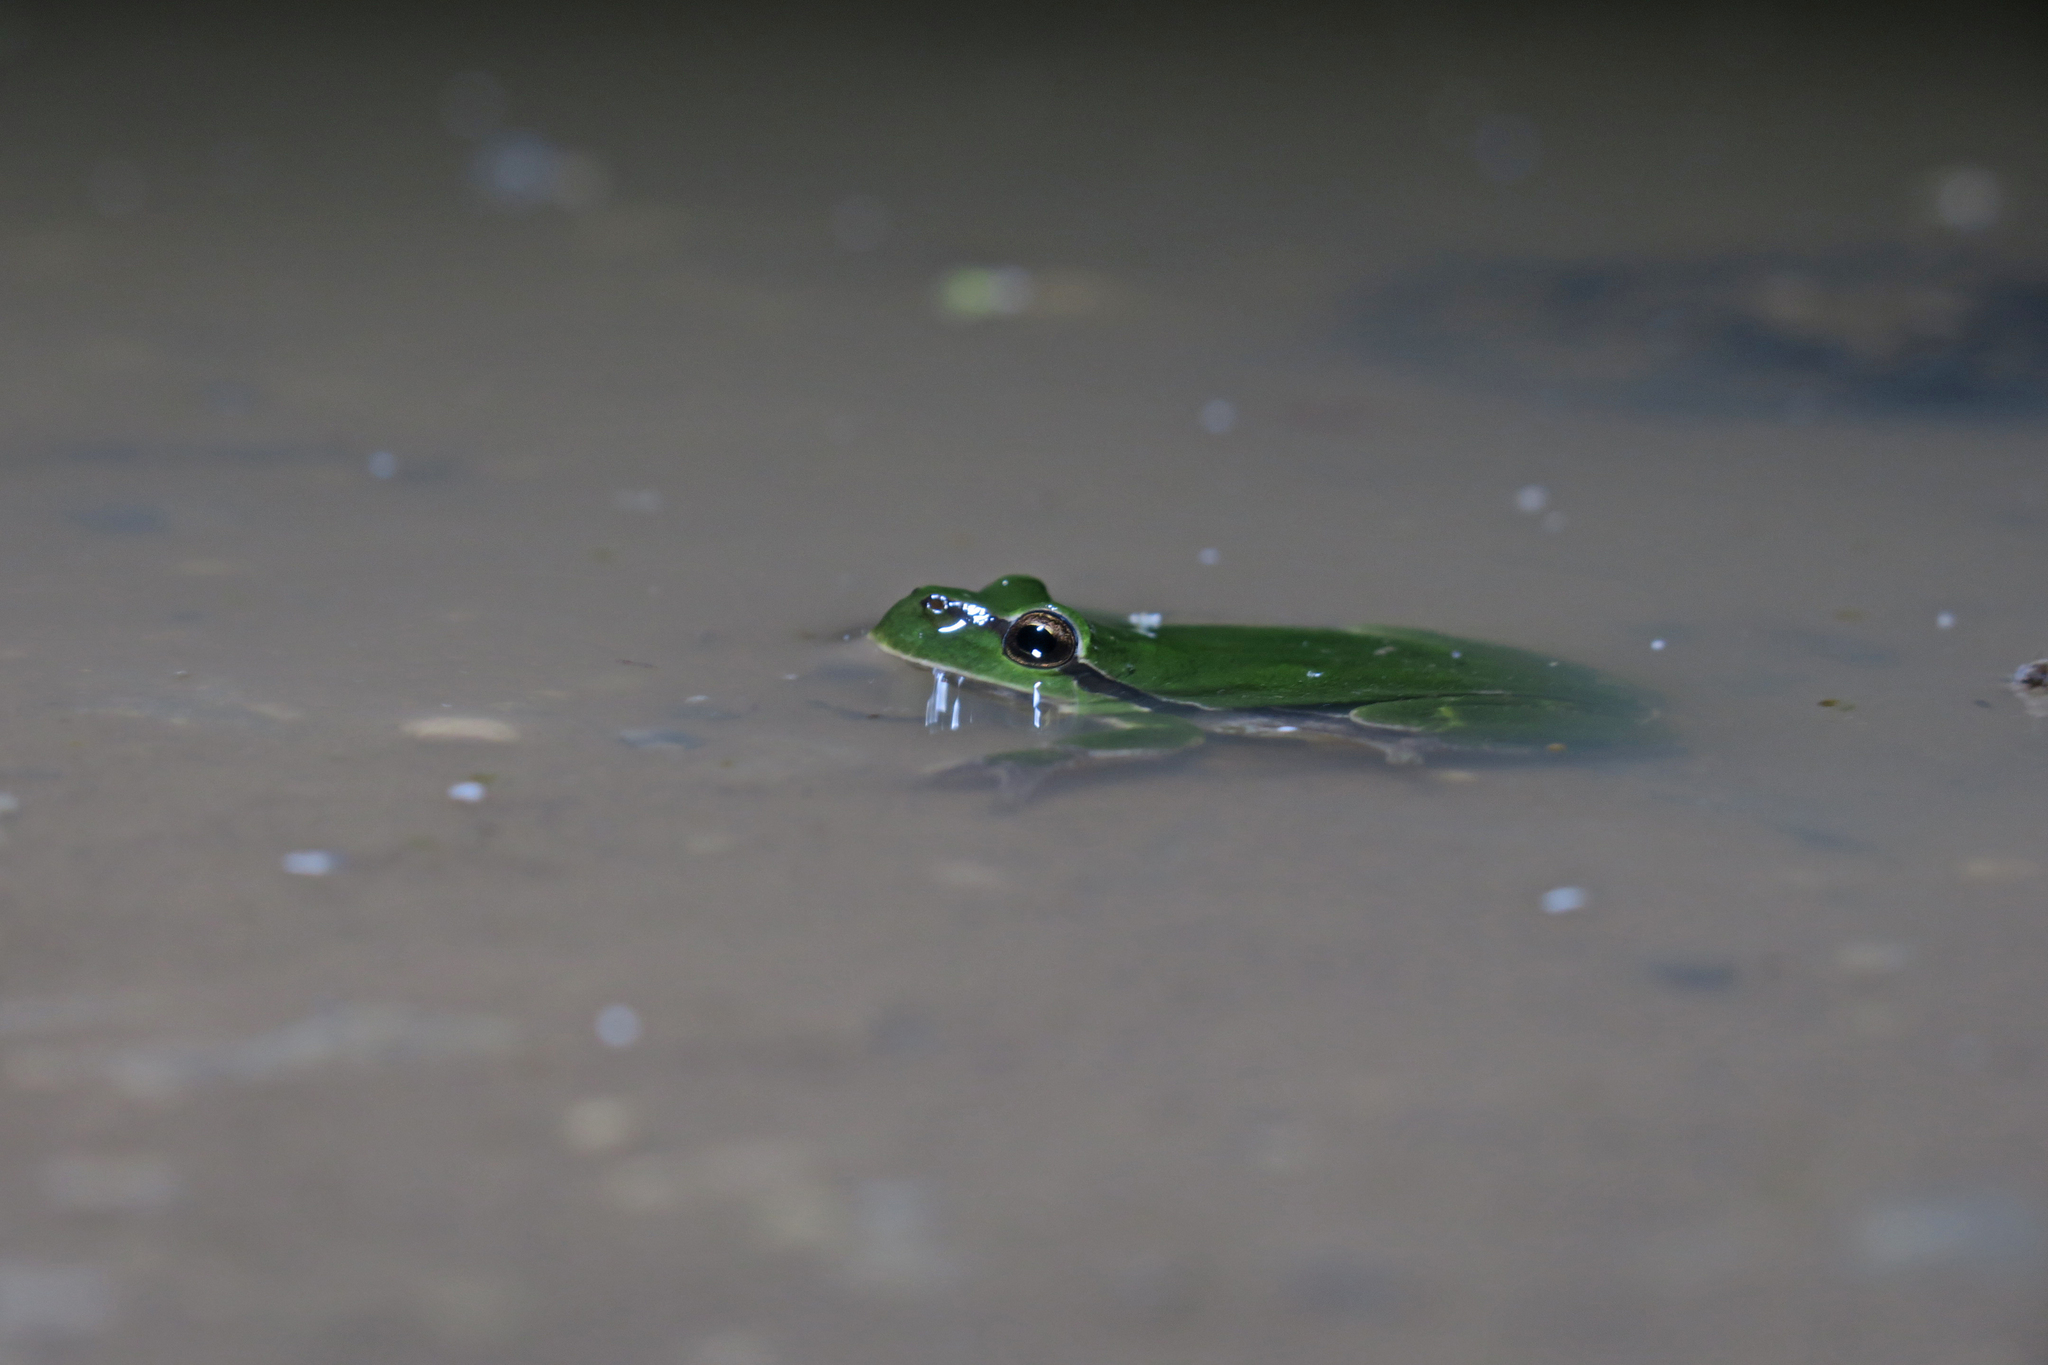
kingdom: Animalia
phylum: Chordata
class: Amphibia
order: Anura
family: Hylidae
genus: Hyla
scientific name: Hyla arborea
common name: Common tree frog
